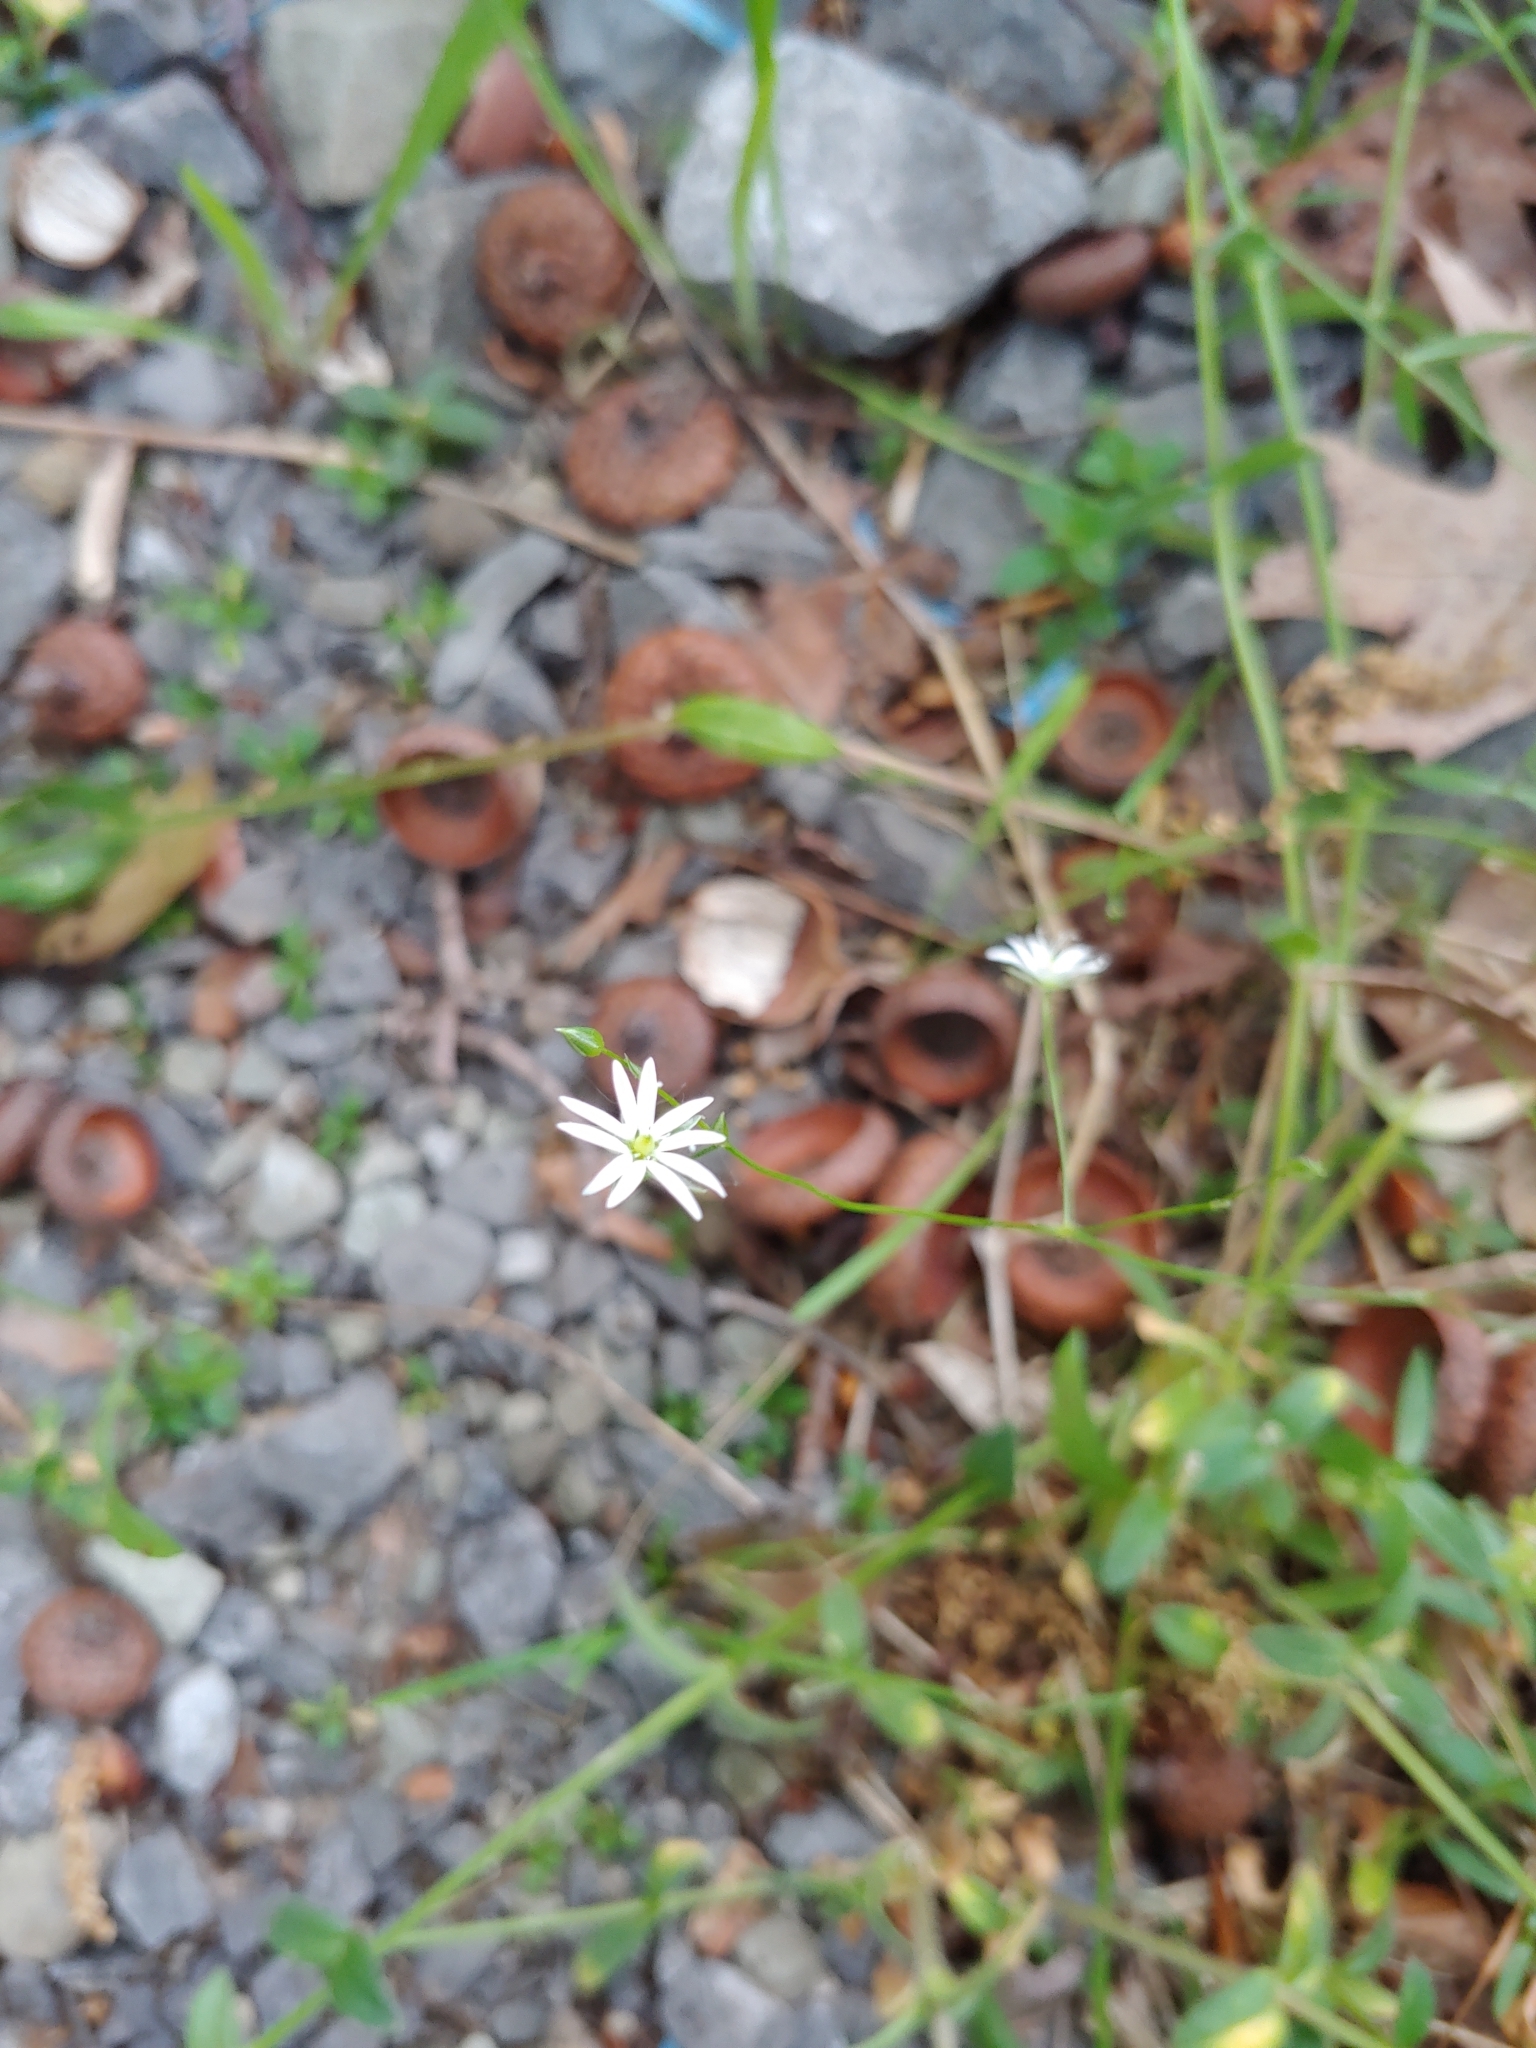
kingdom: Plantae
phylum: Tracheophyta
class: Magnoliopsida
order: Caryophyllales
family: Caryophyllaceae
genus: Stellaria
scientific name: Stellaria graminea
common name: Grass-like starwort
